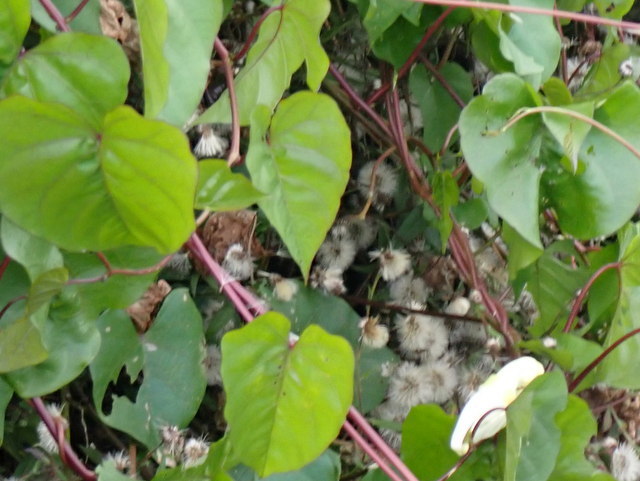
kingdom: Plantae
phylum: Tracheophyta
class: Magnoliopsida
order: Solanales
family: Convolvulaceae
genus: Ipomoea
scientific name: Ipomoea alba
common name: Moonflower
